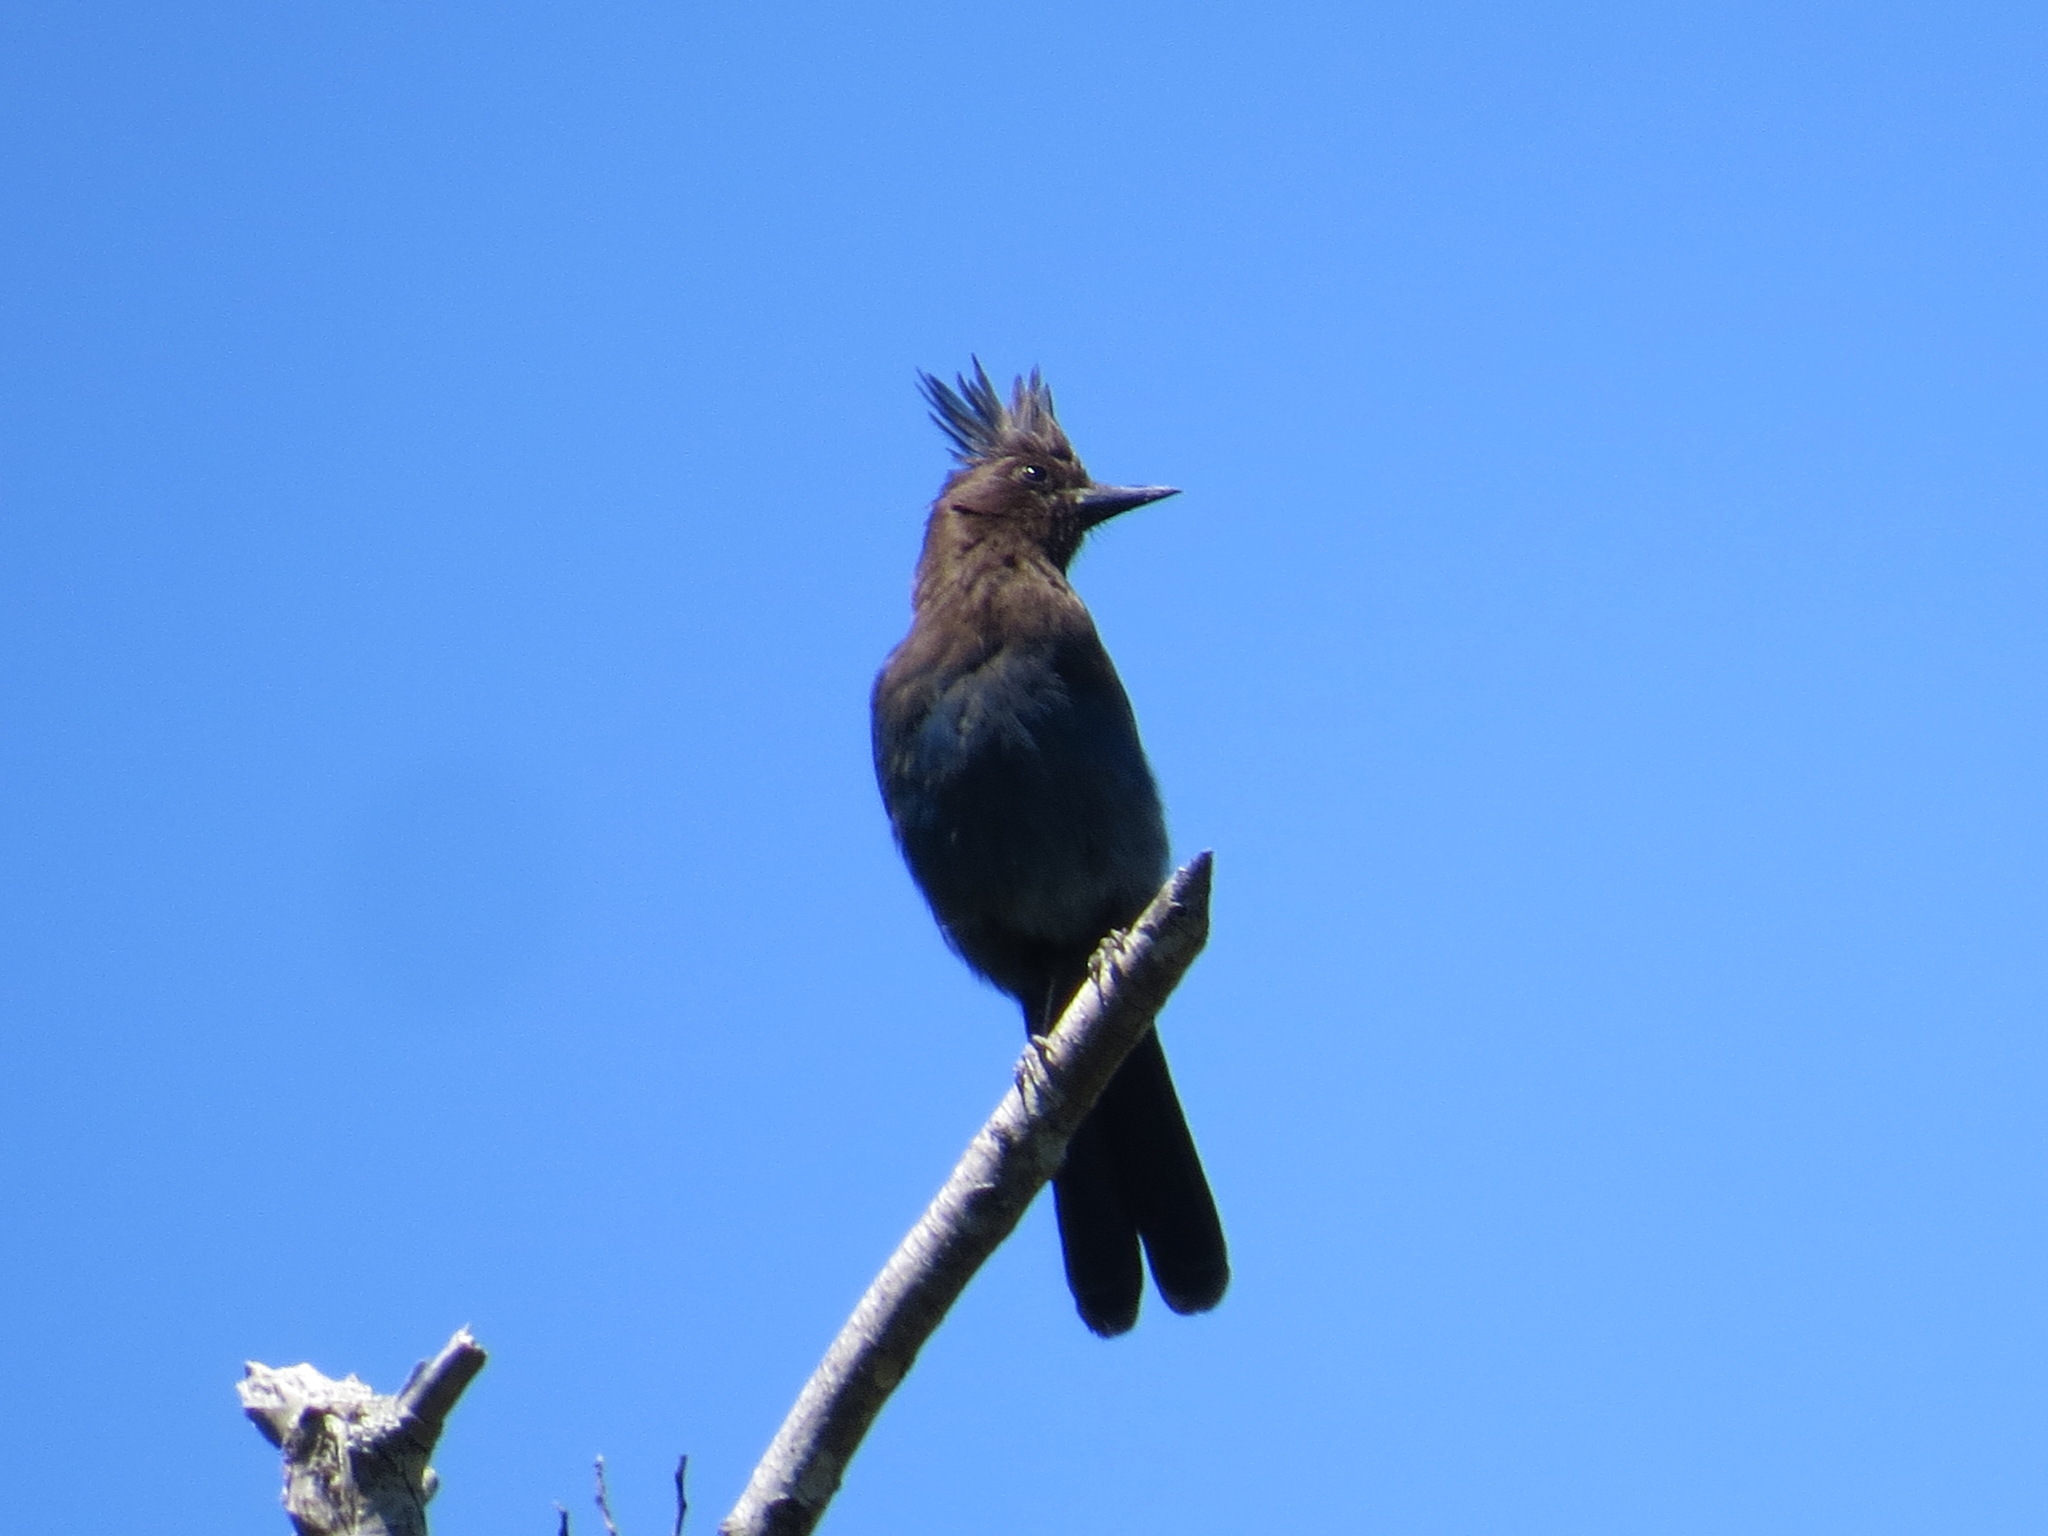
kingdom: Animalia
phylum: Chordata
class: Aves
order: Passeriformes
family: Corvidae
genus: Cyanocitta
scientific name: Cyanocitta stelleri
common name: Steller's jay
